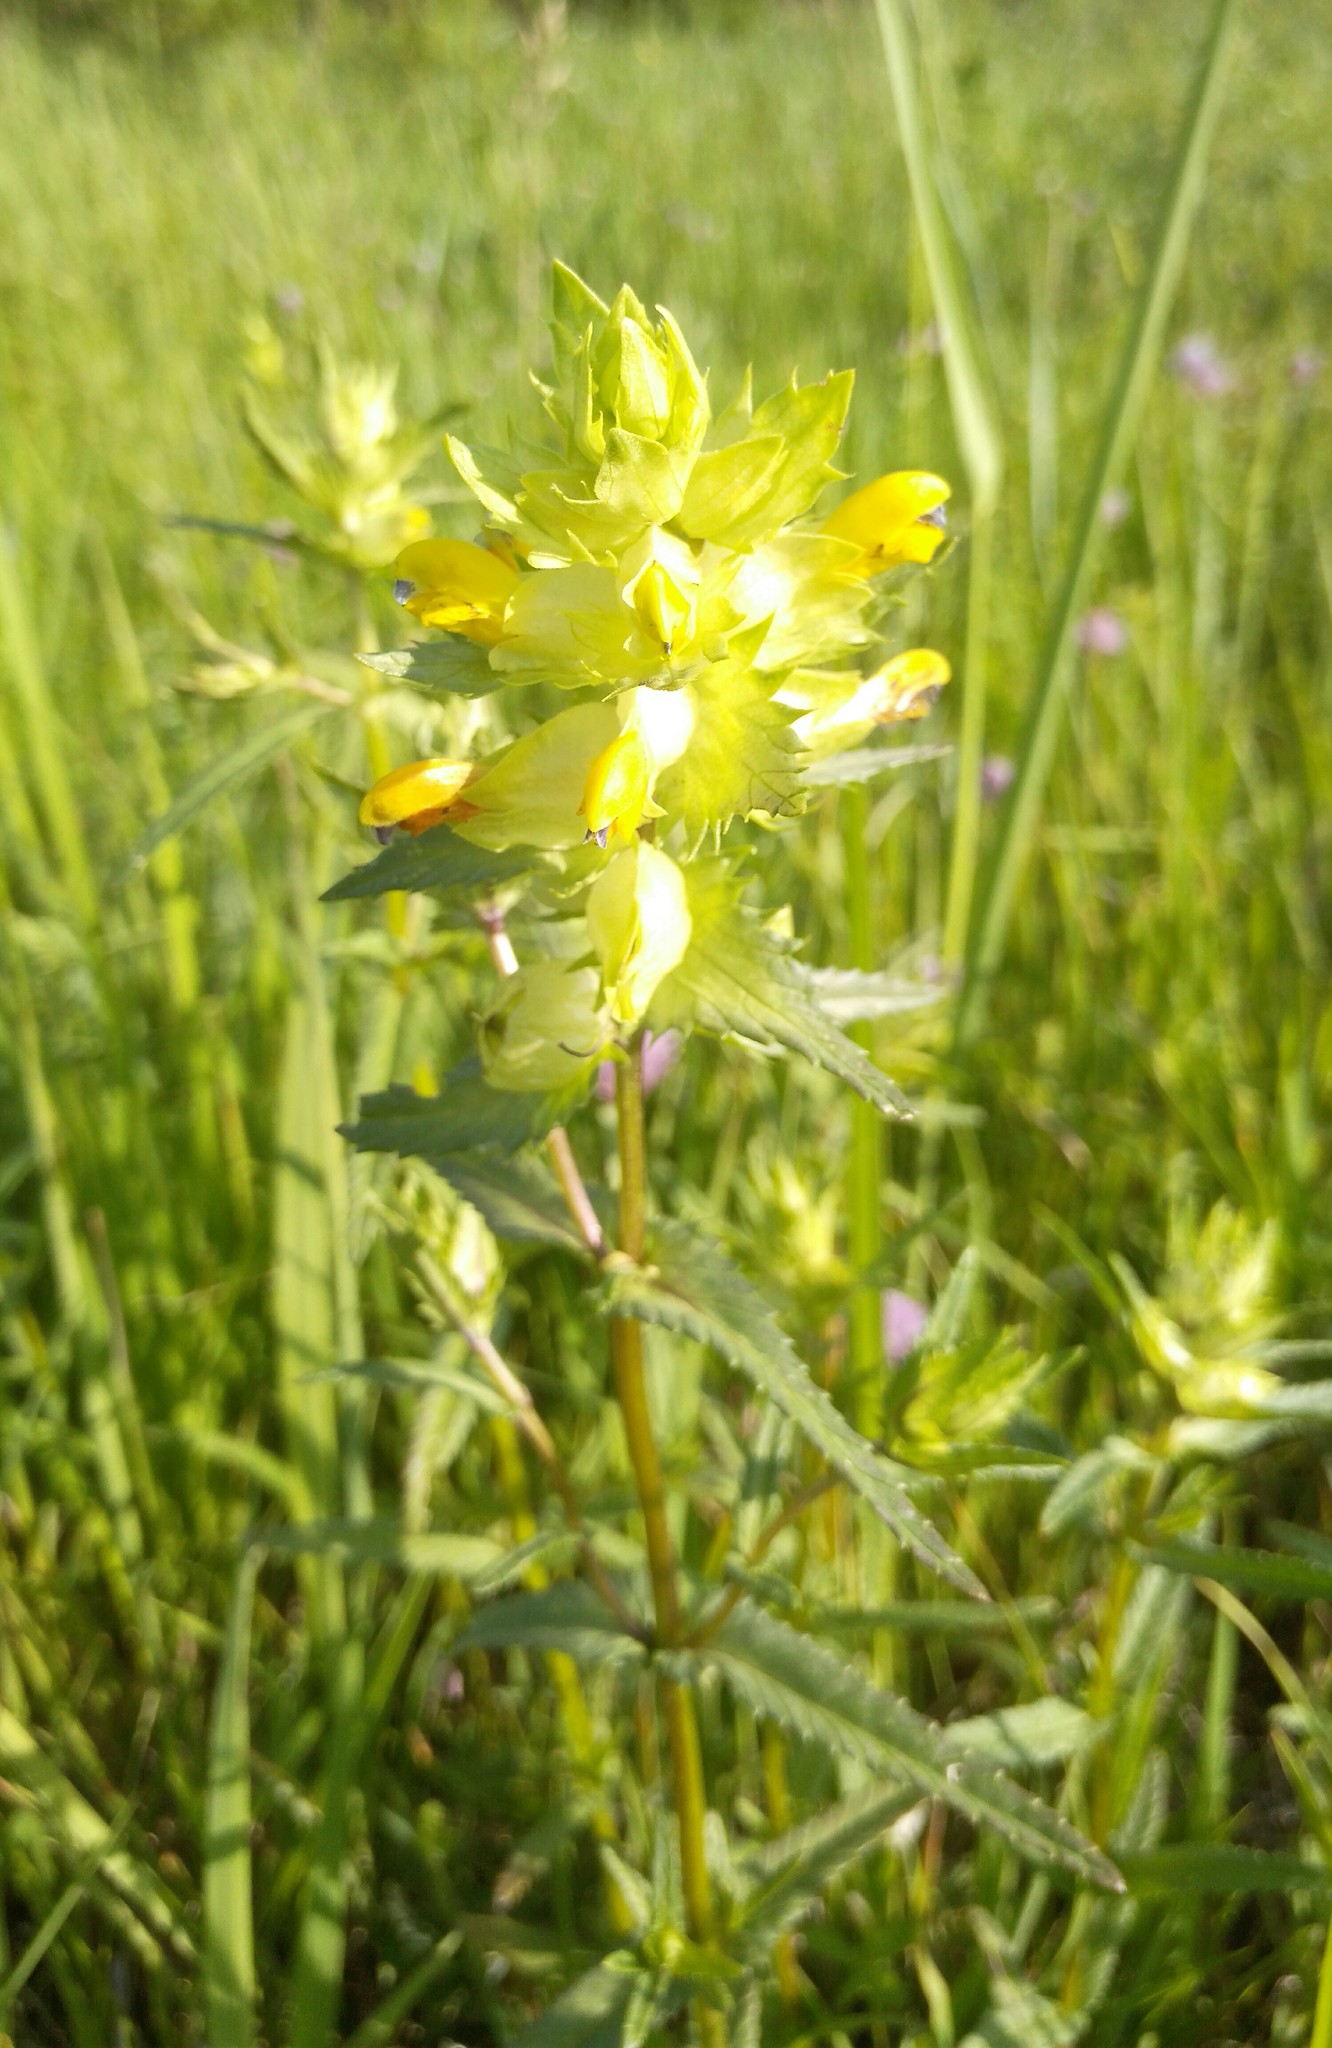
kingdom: Plantae
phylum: Tracheophyta
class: Magnoliopsida
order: Lamiales
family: Orobanchaceae
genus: Rhinanthus
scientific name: Rhinanthus serotinus
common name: Late-flowering yellow rattle
